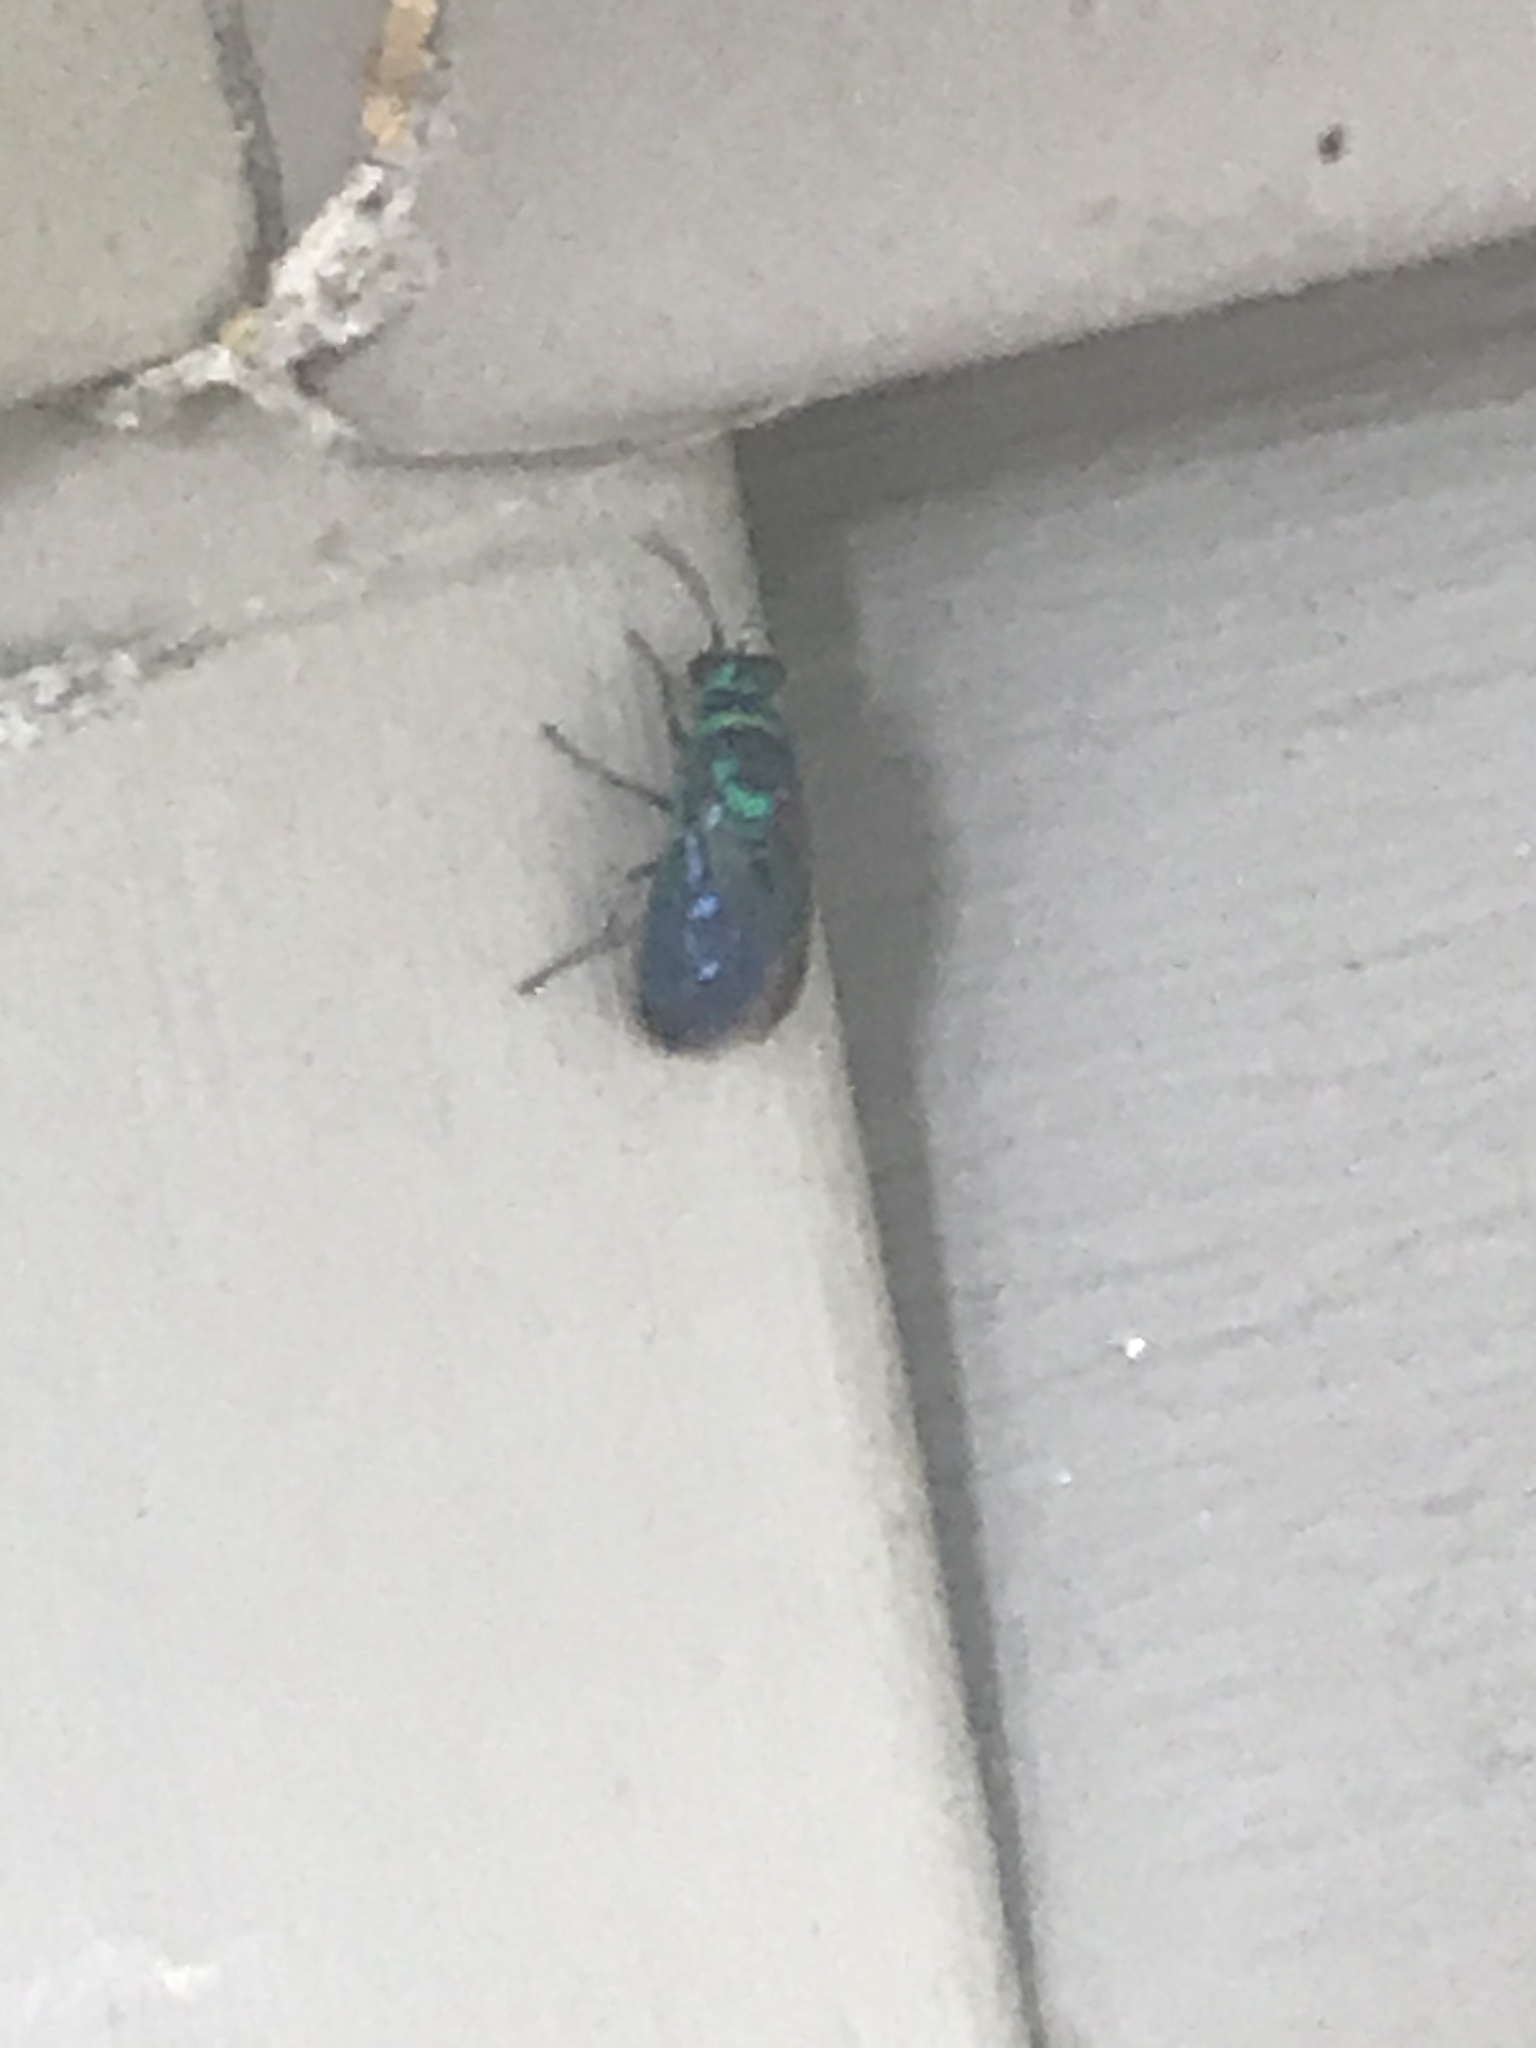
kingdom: Animalia
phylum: Arthropoda
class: Insecta
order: Hymenoptera
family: Chrysididae
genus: Chrysis
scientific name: Chrysis angolensis
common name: Cuckoo wasp
